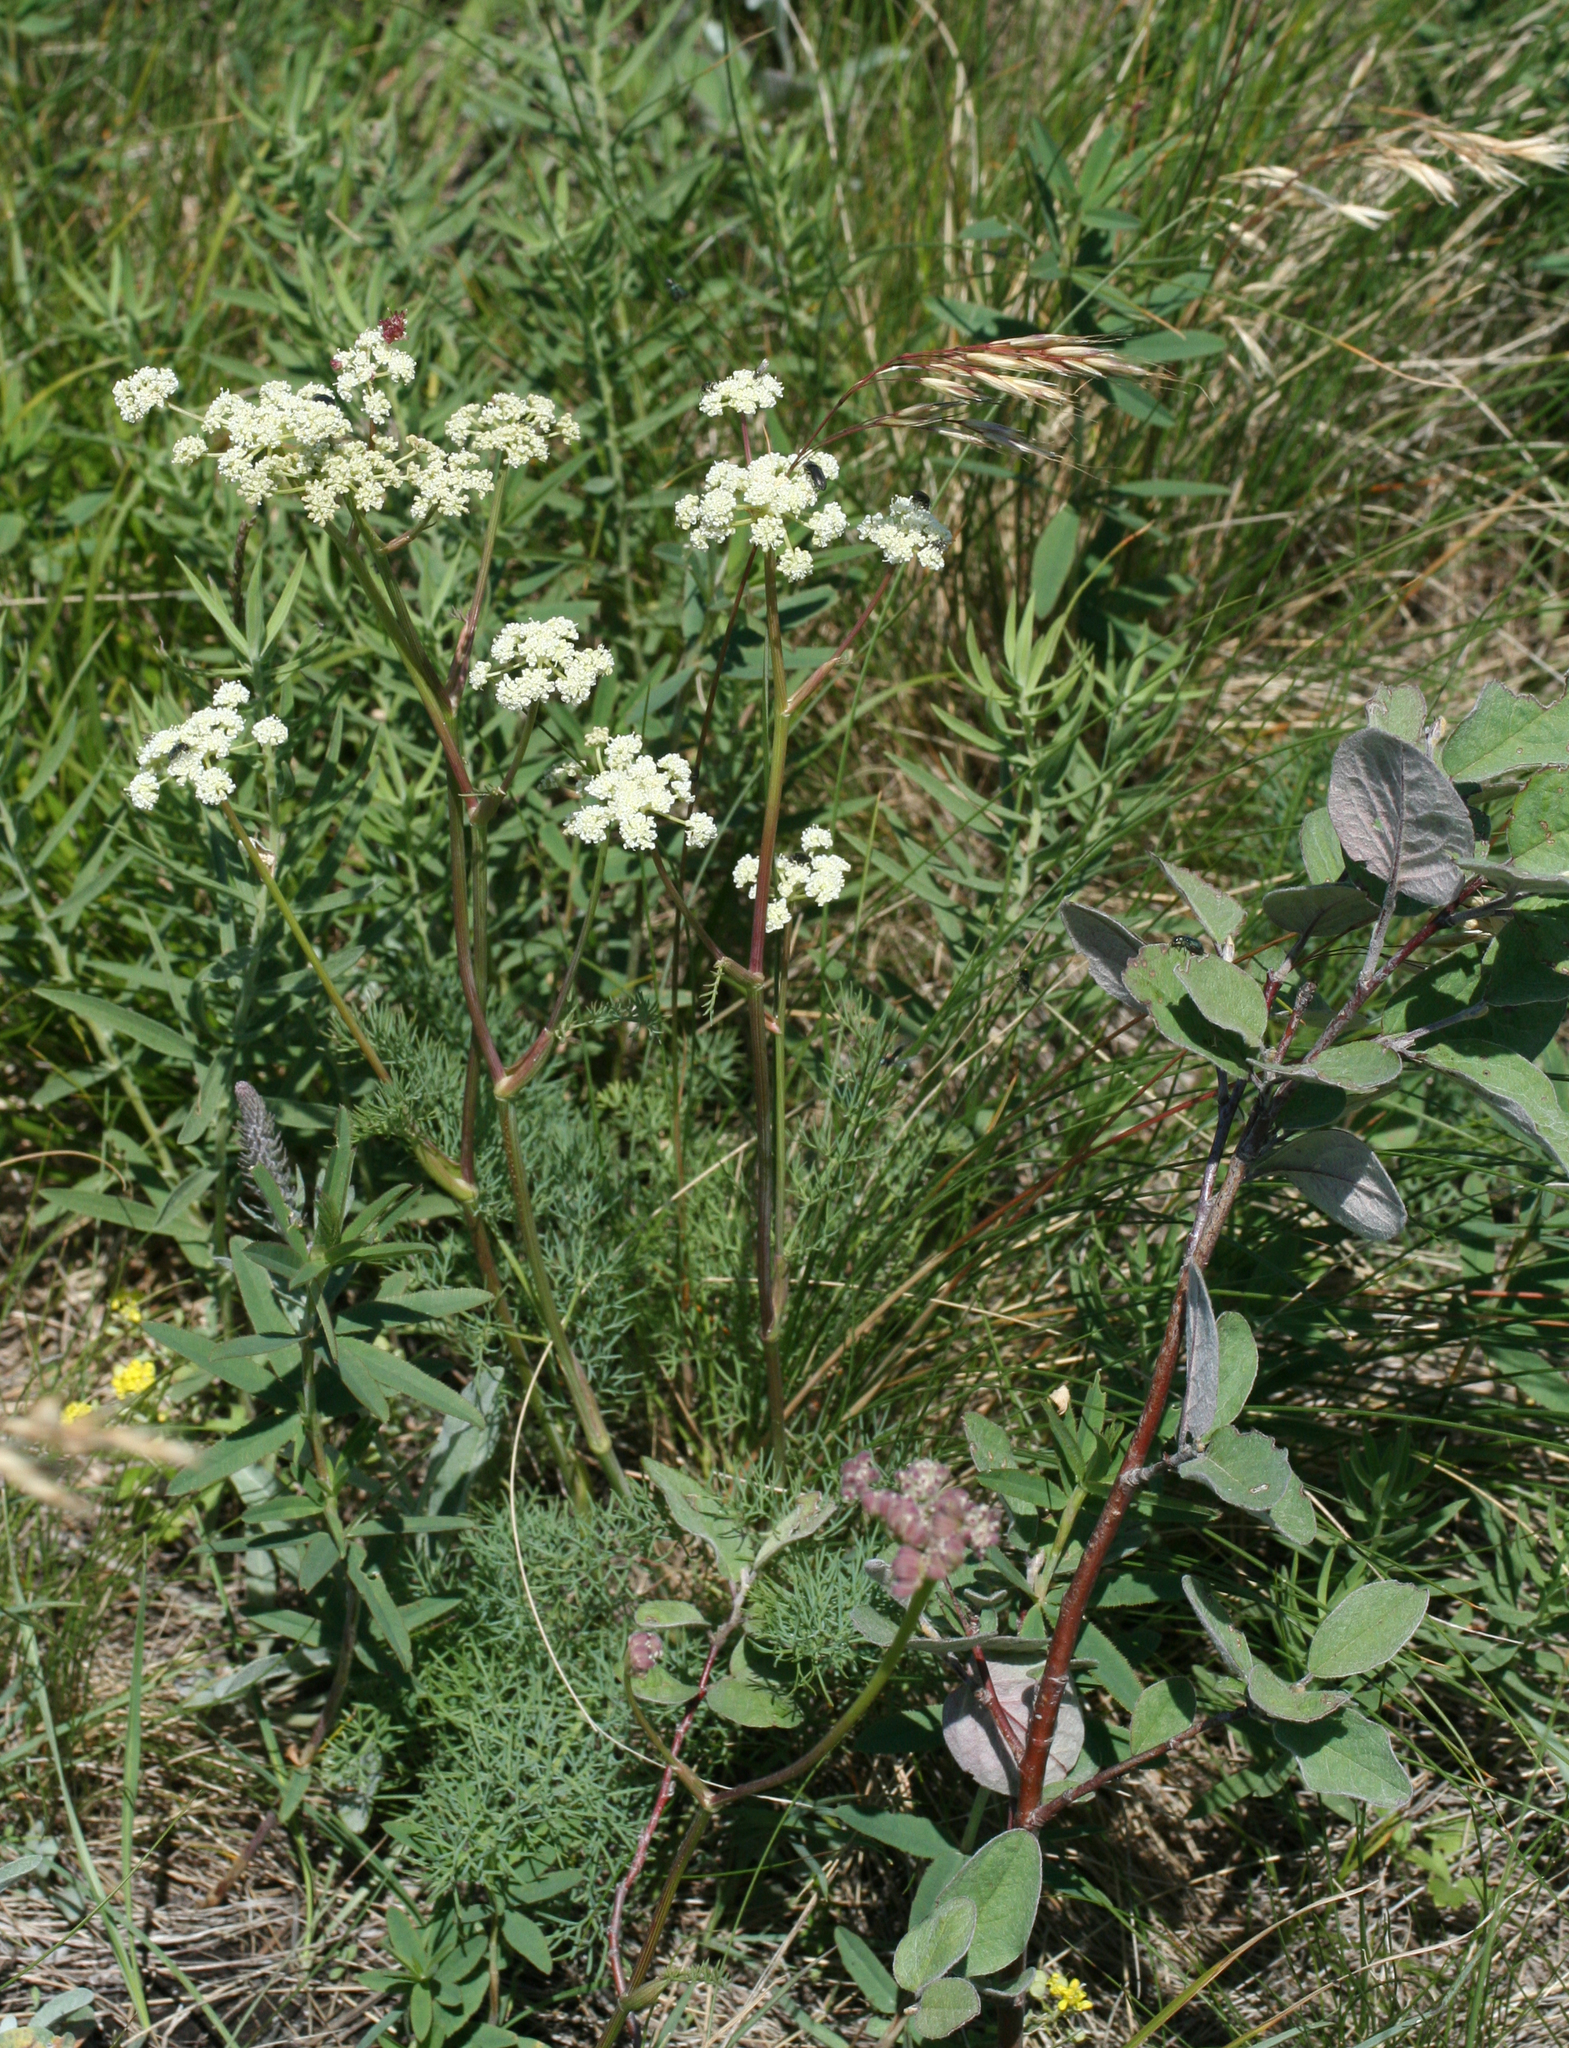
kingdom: Plantae
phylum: Tracheophyta
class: Magnoliopsida
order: Apiales
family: Apiaceae
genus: Seseli
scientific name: Seseli ledebourii
